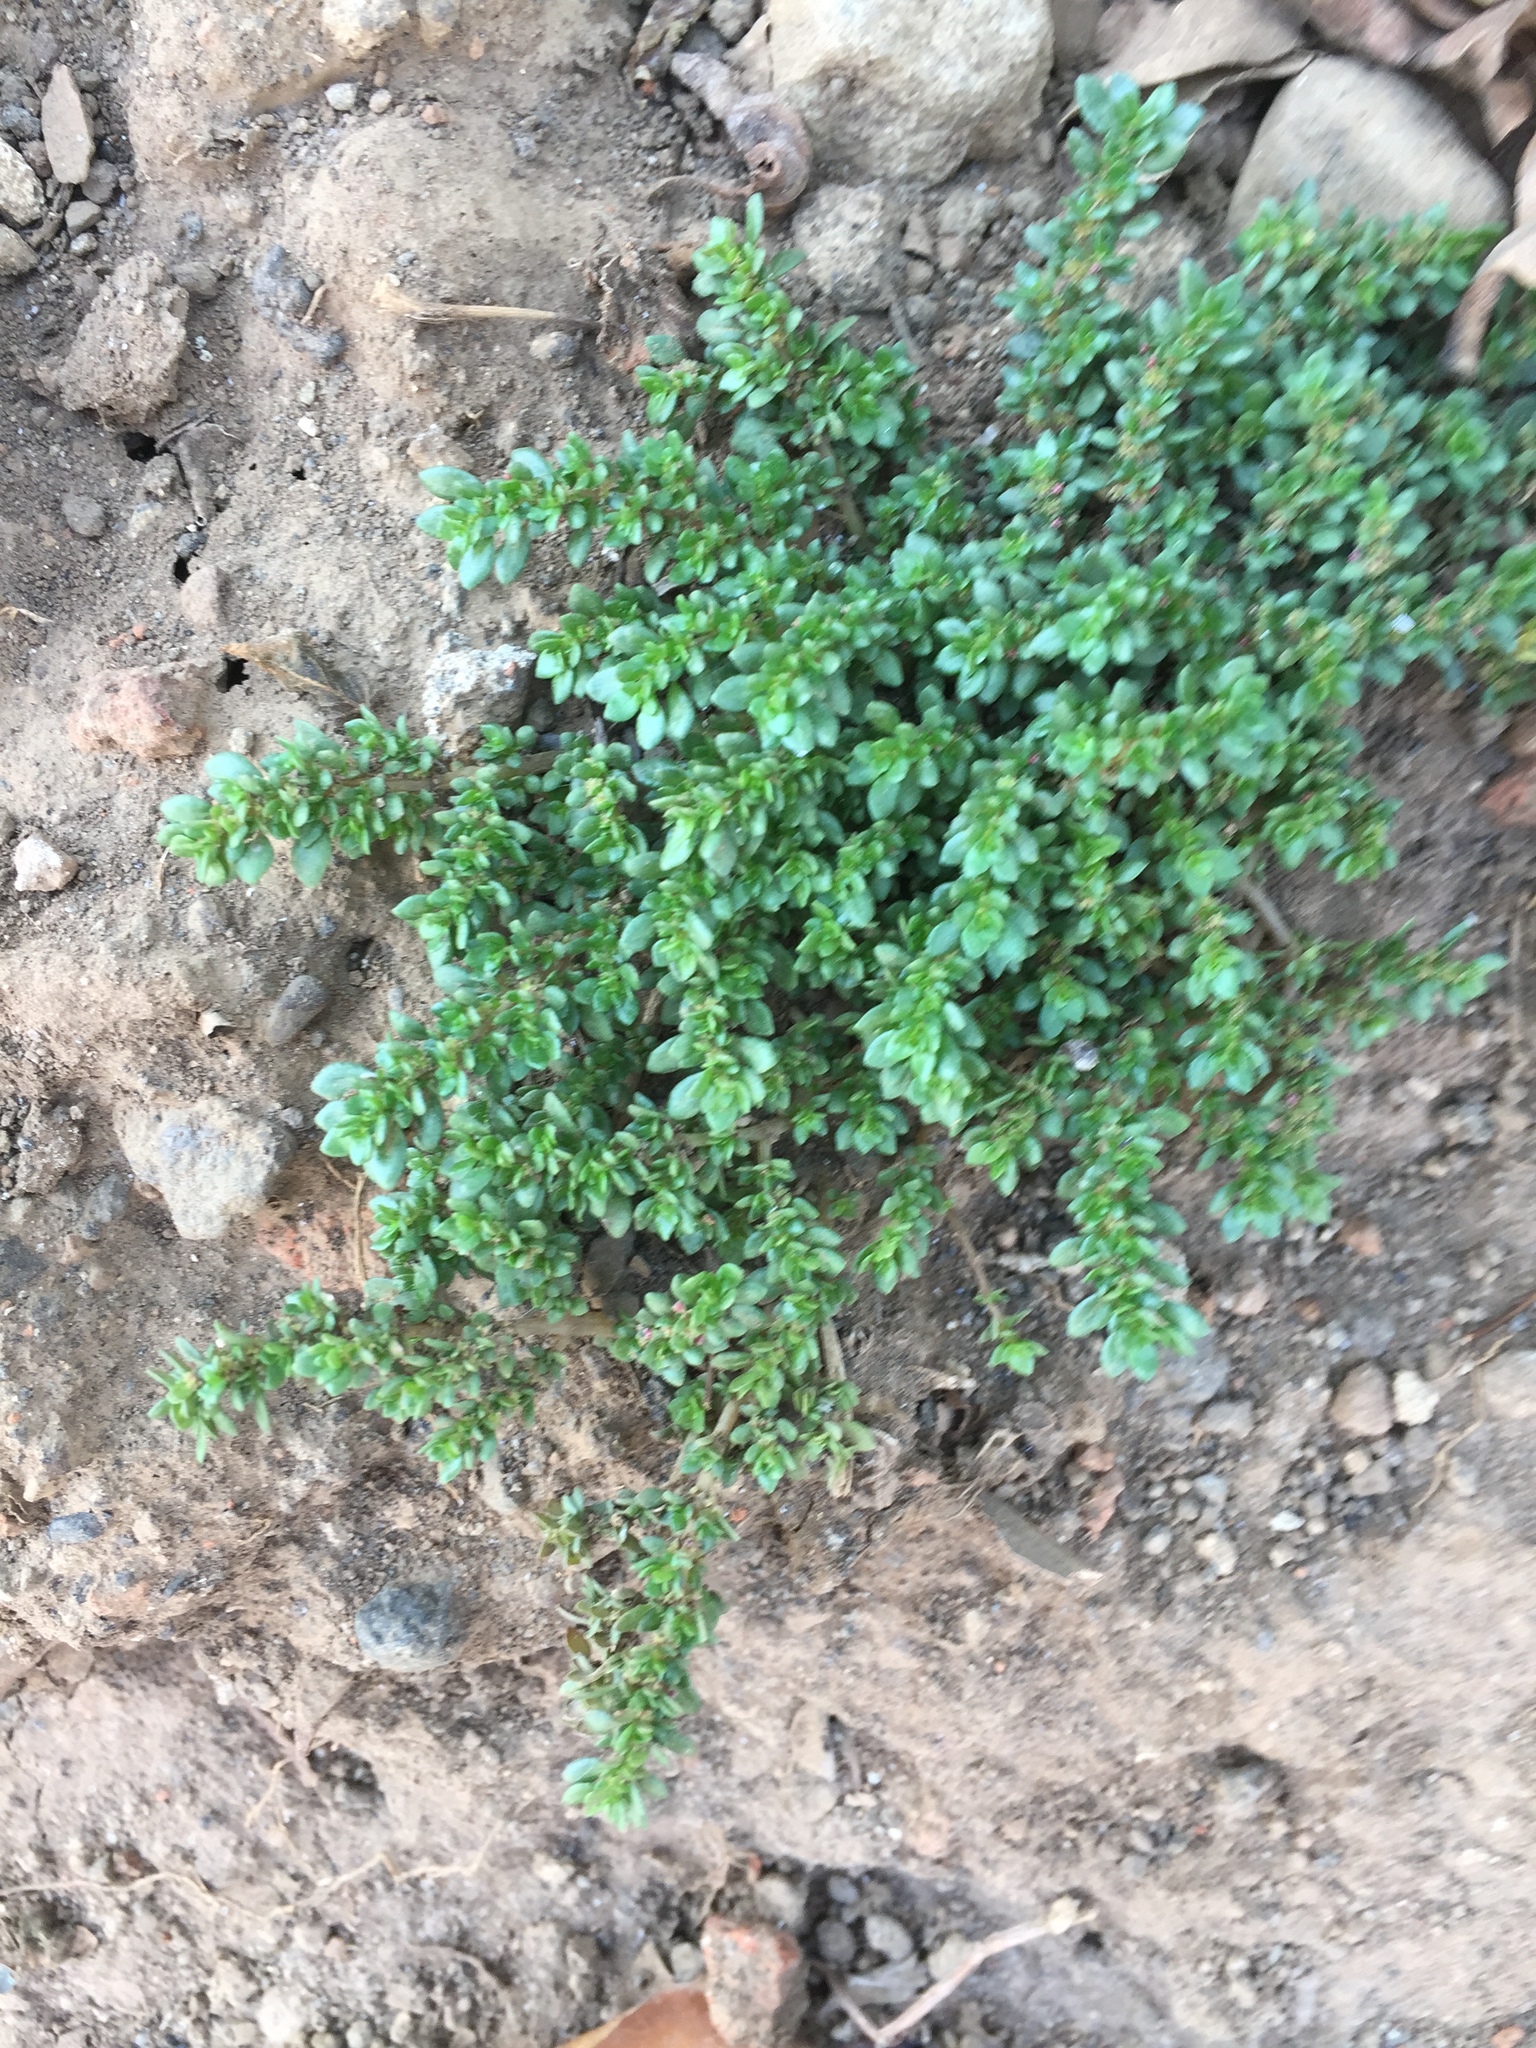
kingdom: Plantae
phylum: Tracheophyta
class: Magnoliopsida
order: Rosales
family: Urticaceae
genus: Pilea
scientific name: Pilea microphylla
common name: Artillery-plant
